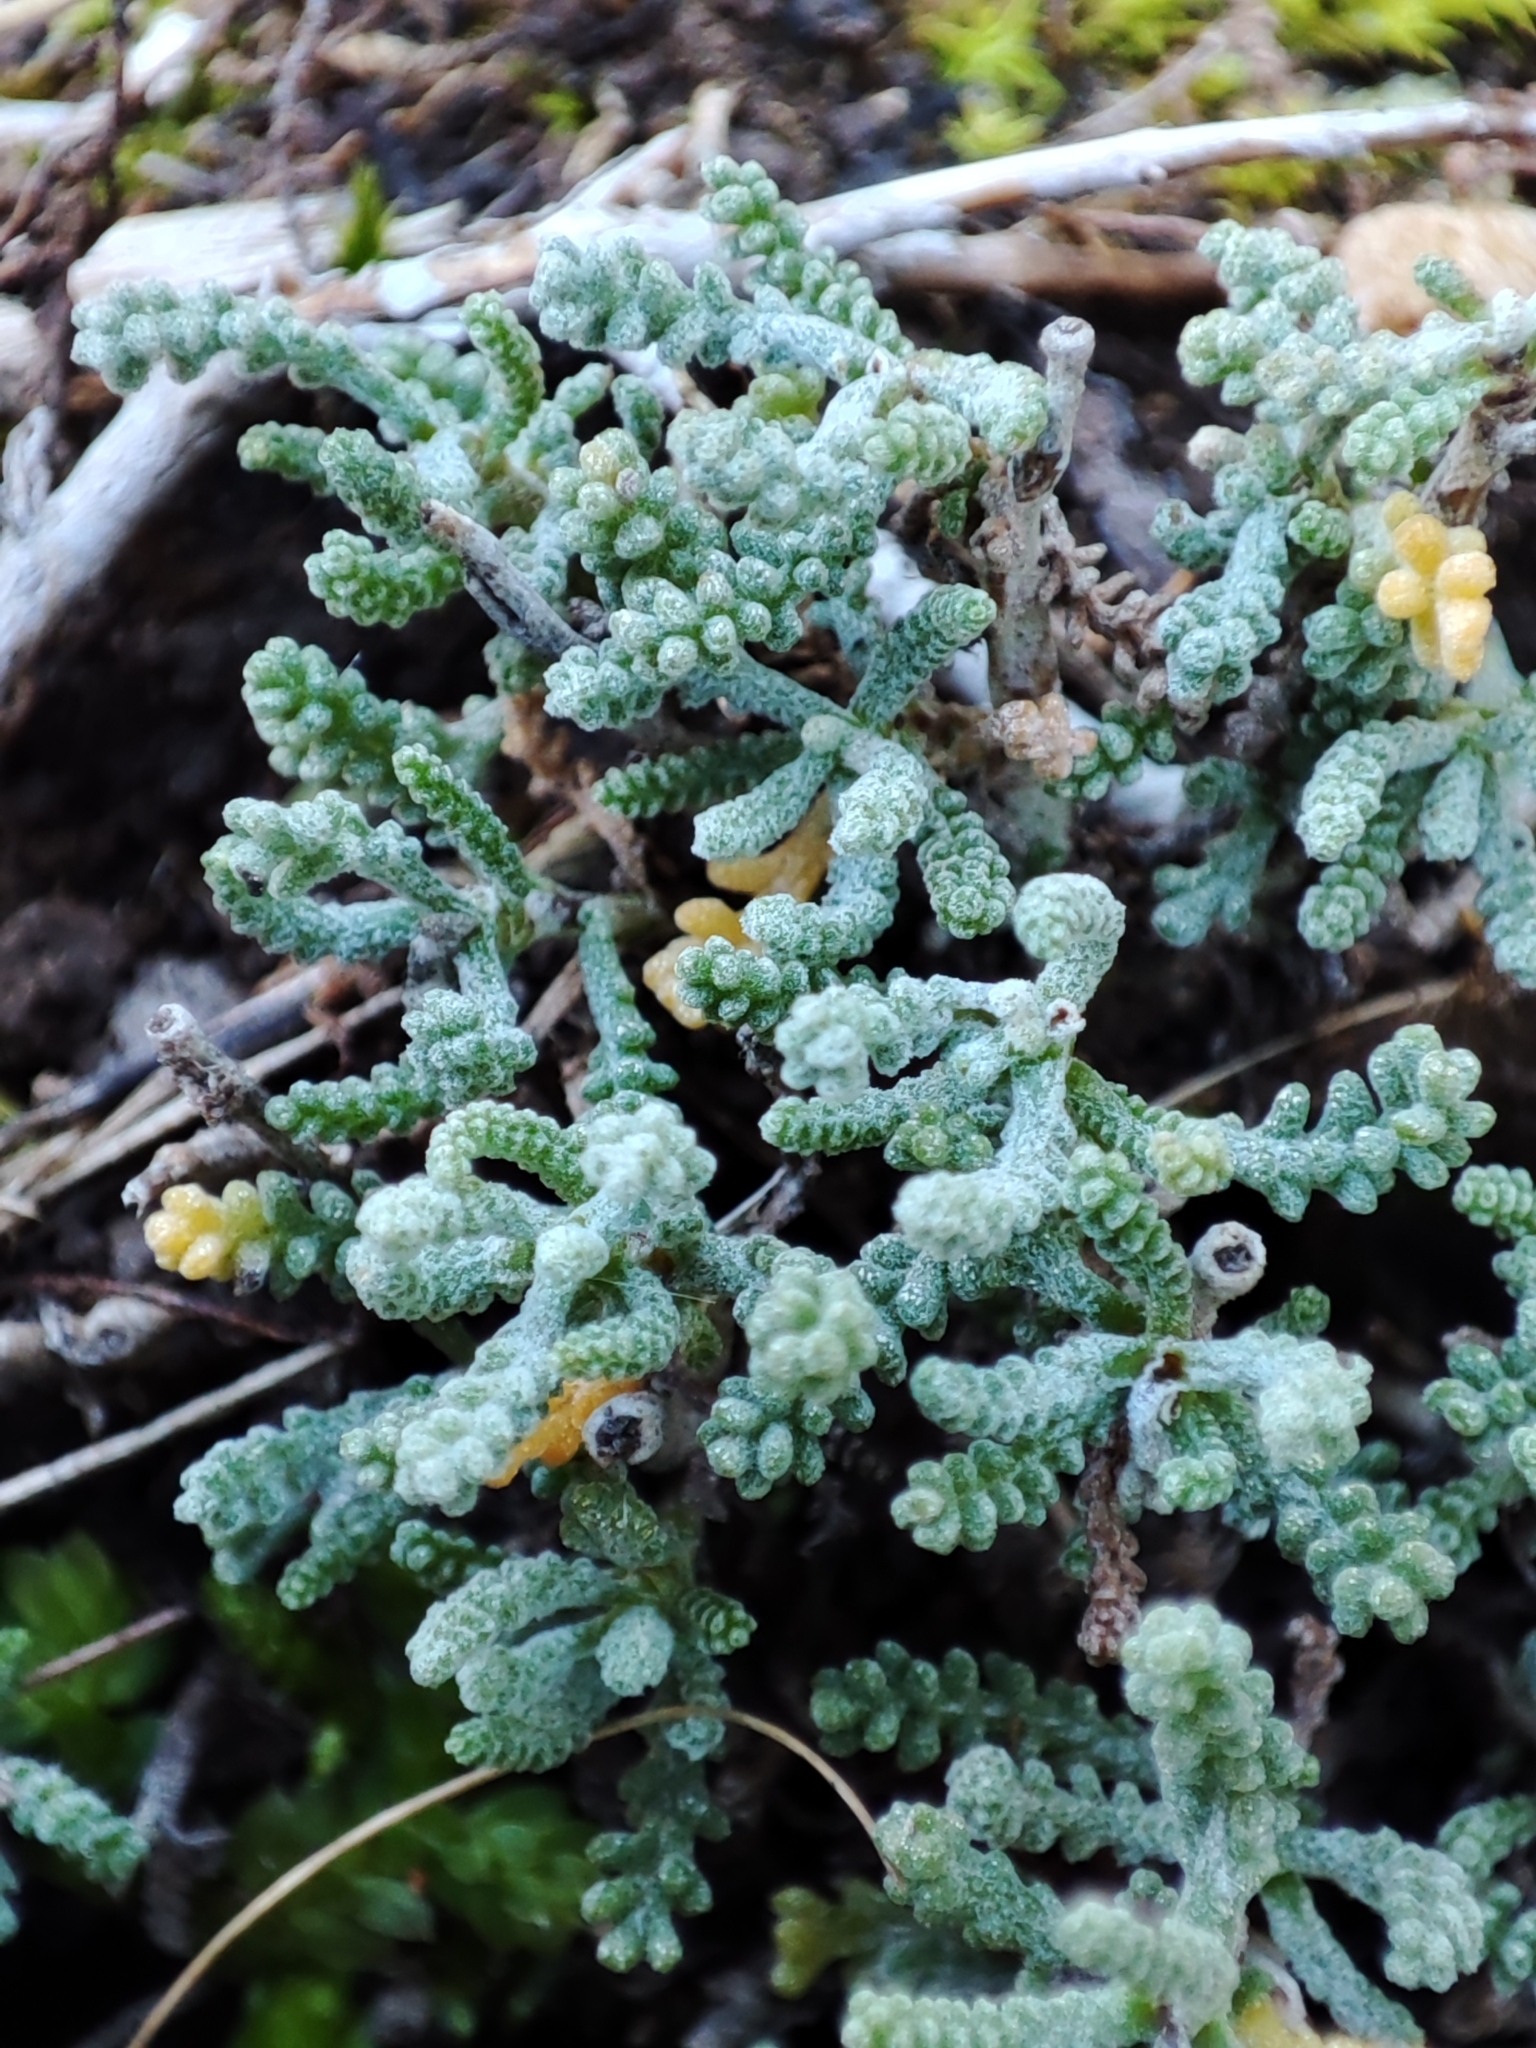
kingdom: Plantae
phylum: Tracheophyta
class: Magnoliopsida
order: Asterales
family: Asteraceae
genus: Santolina
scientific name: Santolina magonica
